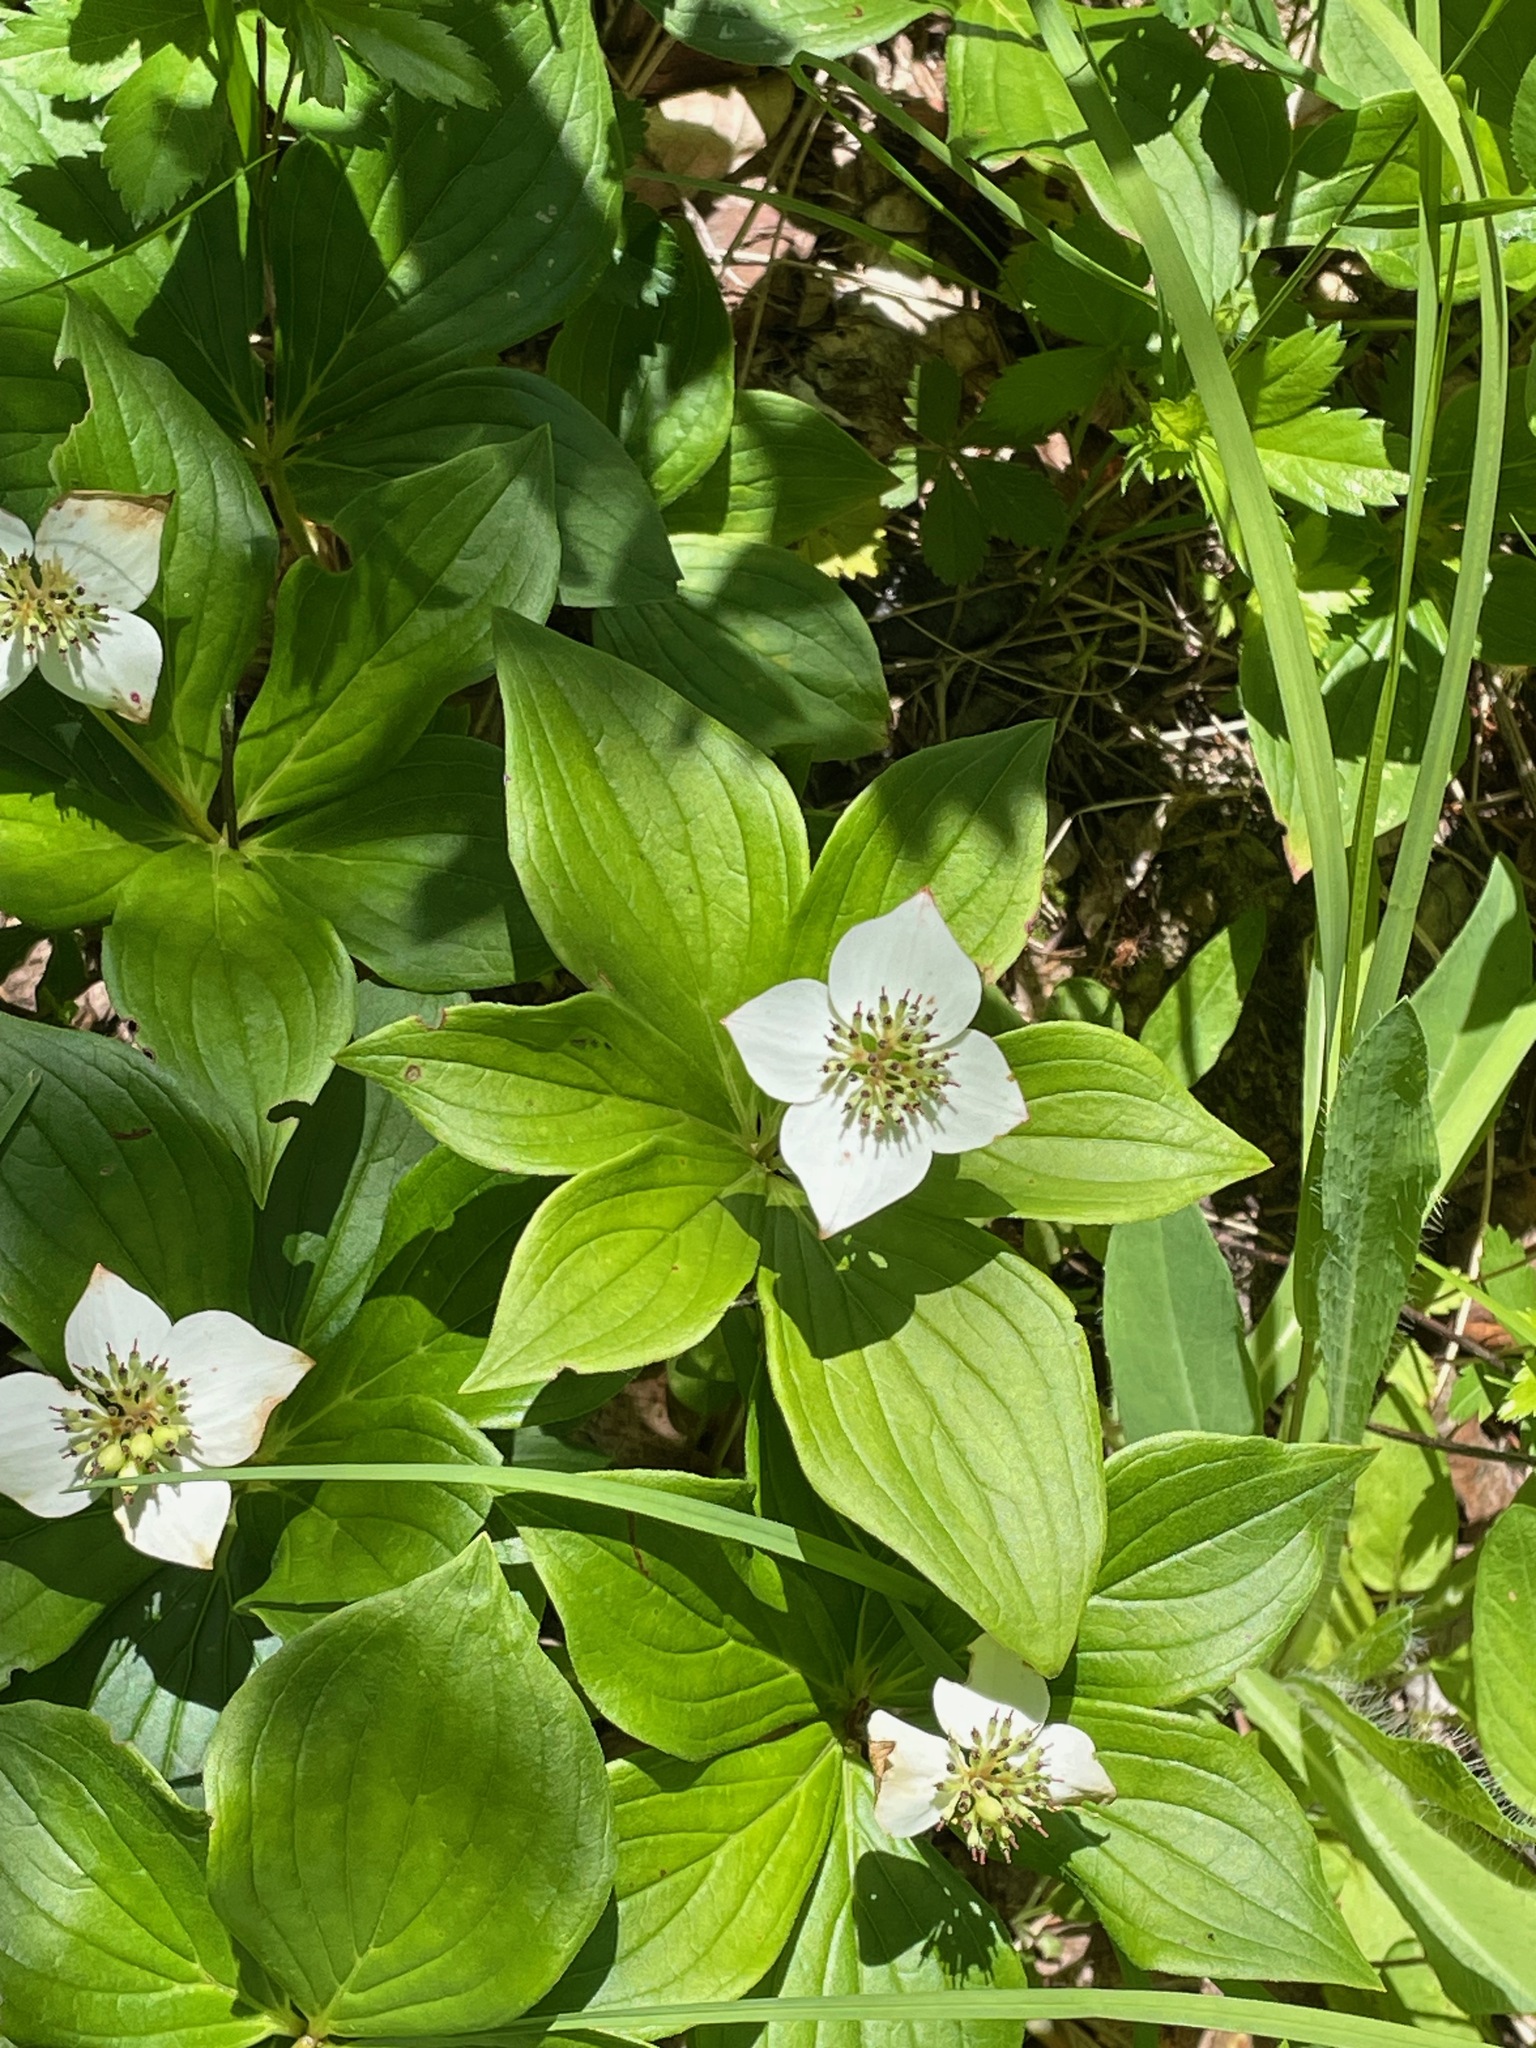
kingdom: Plantae
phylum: Tracheophyta
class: Magnoliopsida
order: Cornales
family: Cornaceae
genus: Cornus
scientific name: Cornus canadensis
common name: Creeping dogwood
